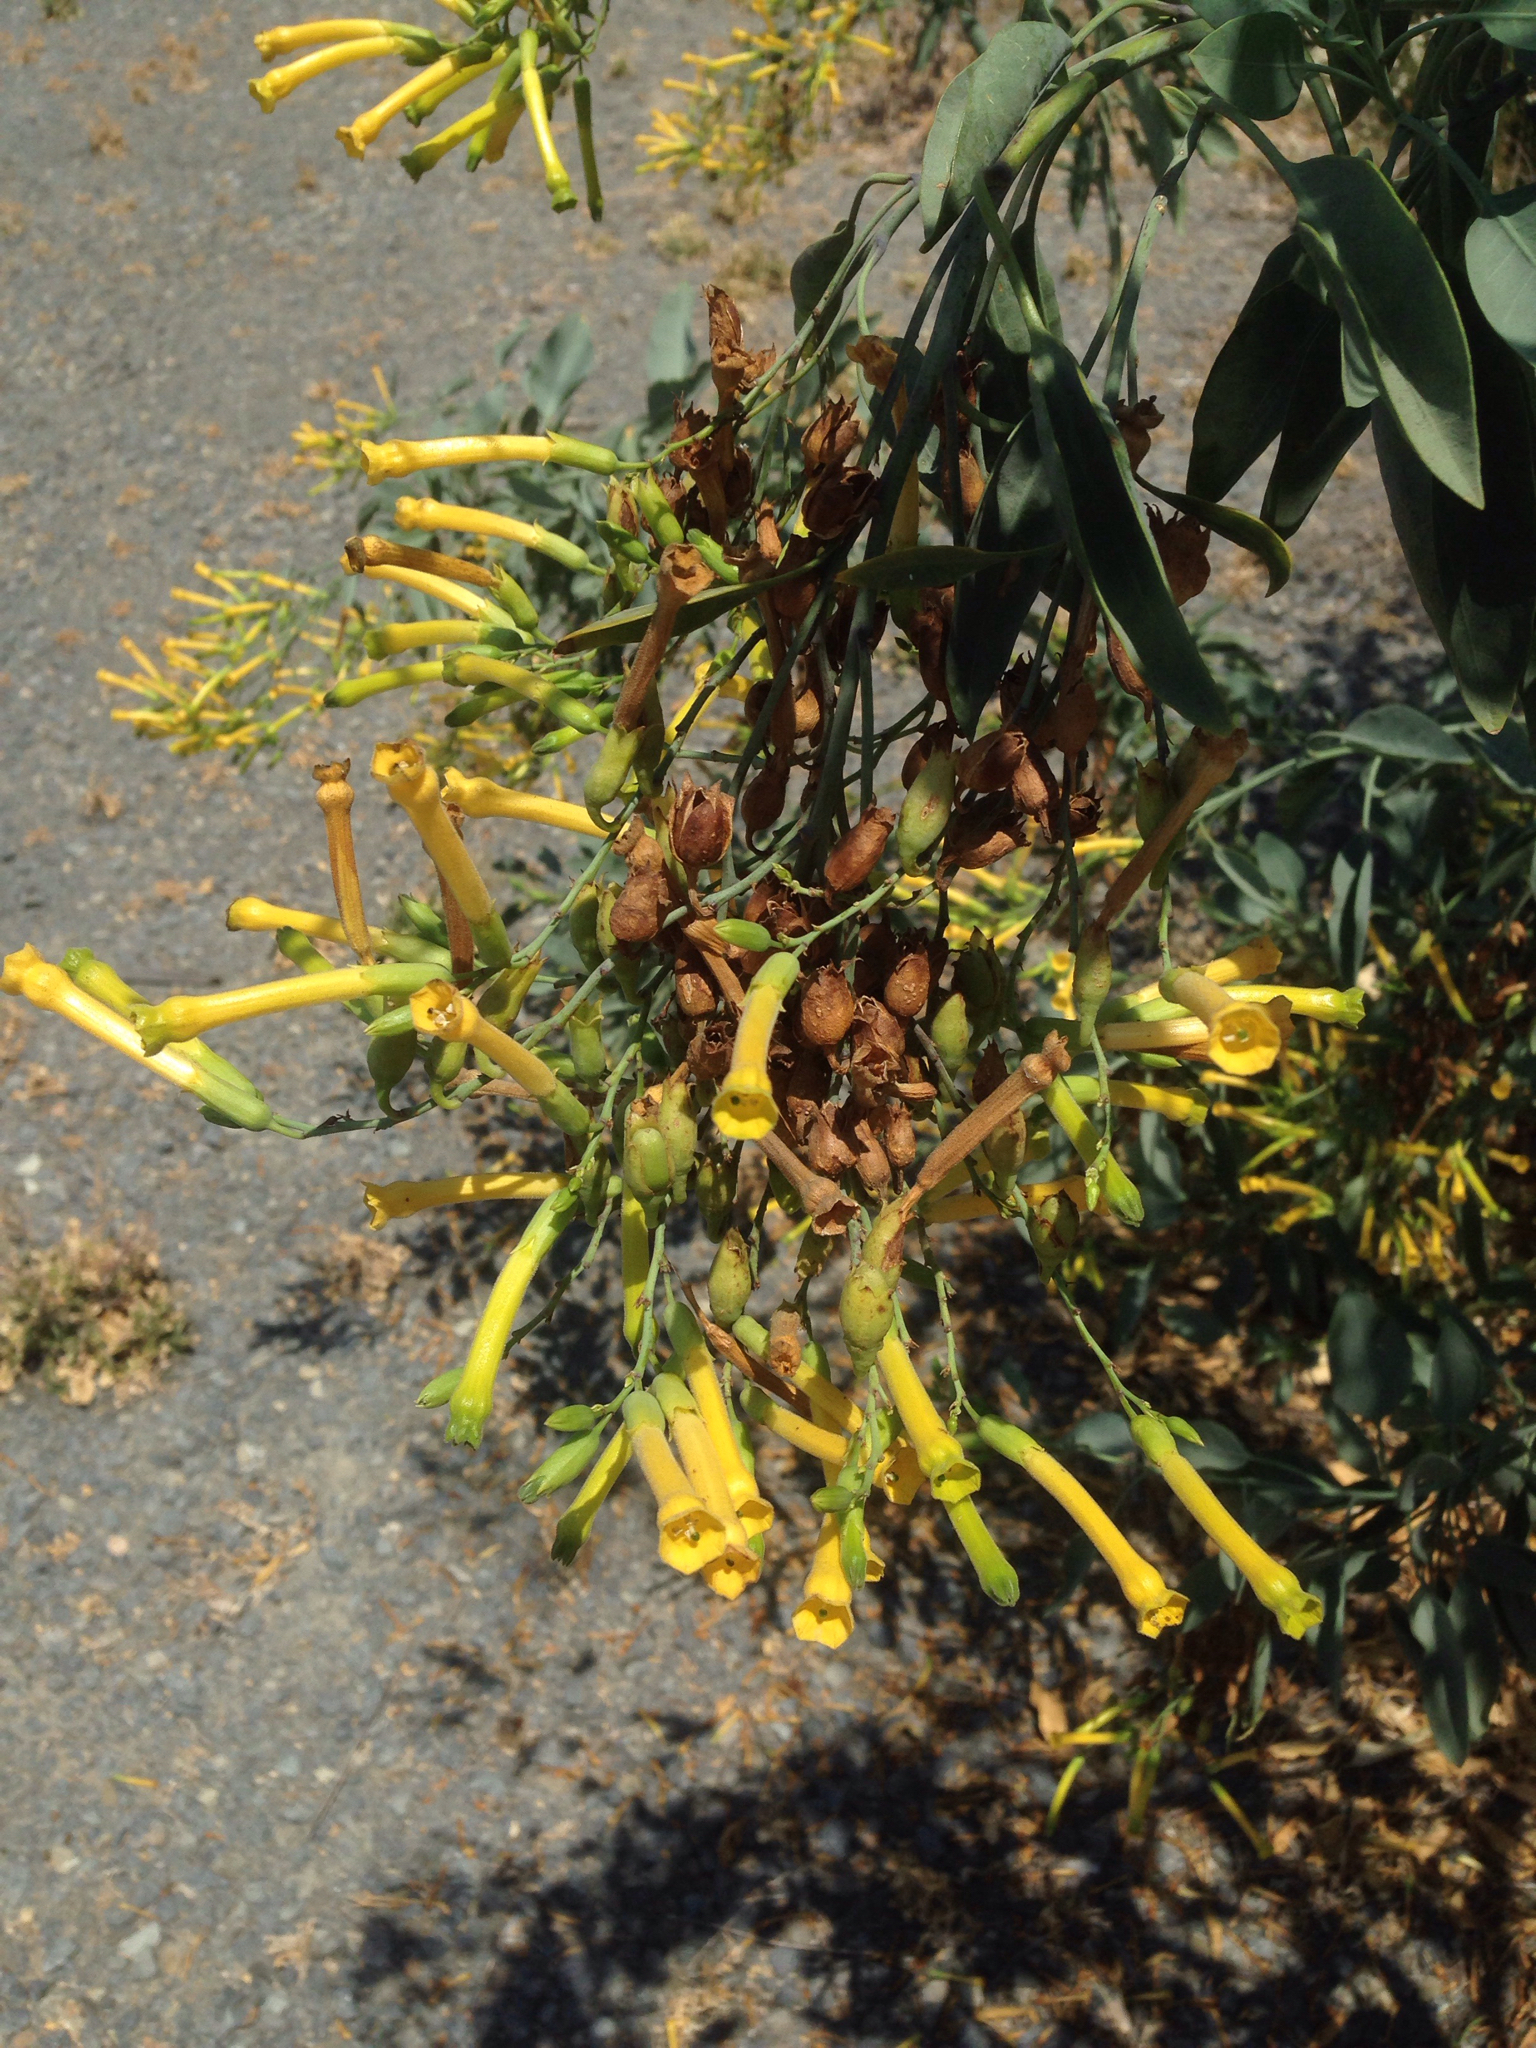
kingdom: Plantae
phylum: Tracheophyta
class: Magnoliopsida
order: Solanales
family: Solanaceae
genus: Nicotiana
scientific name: Nicotiana glauca
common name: Tree tobacco
